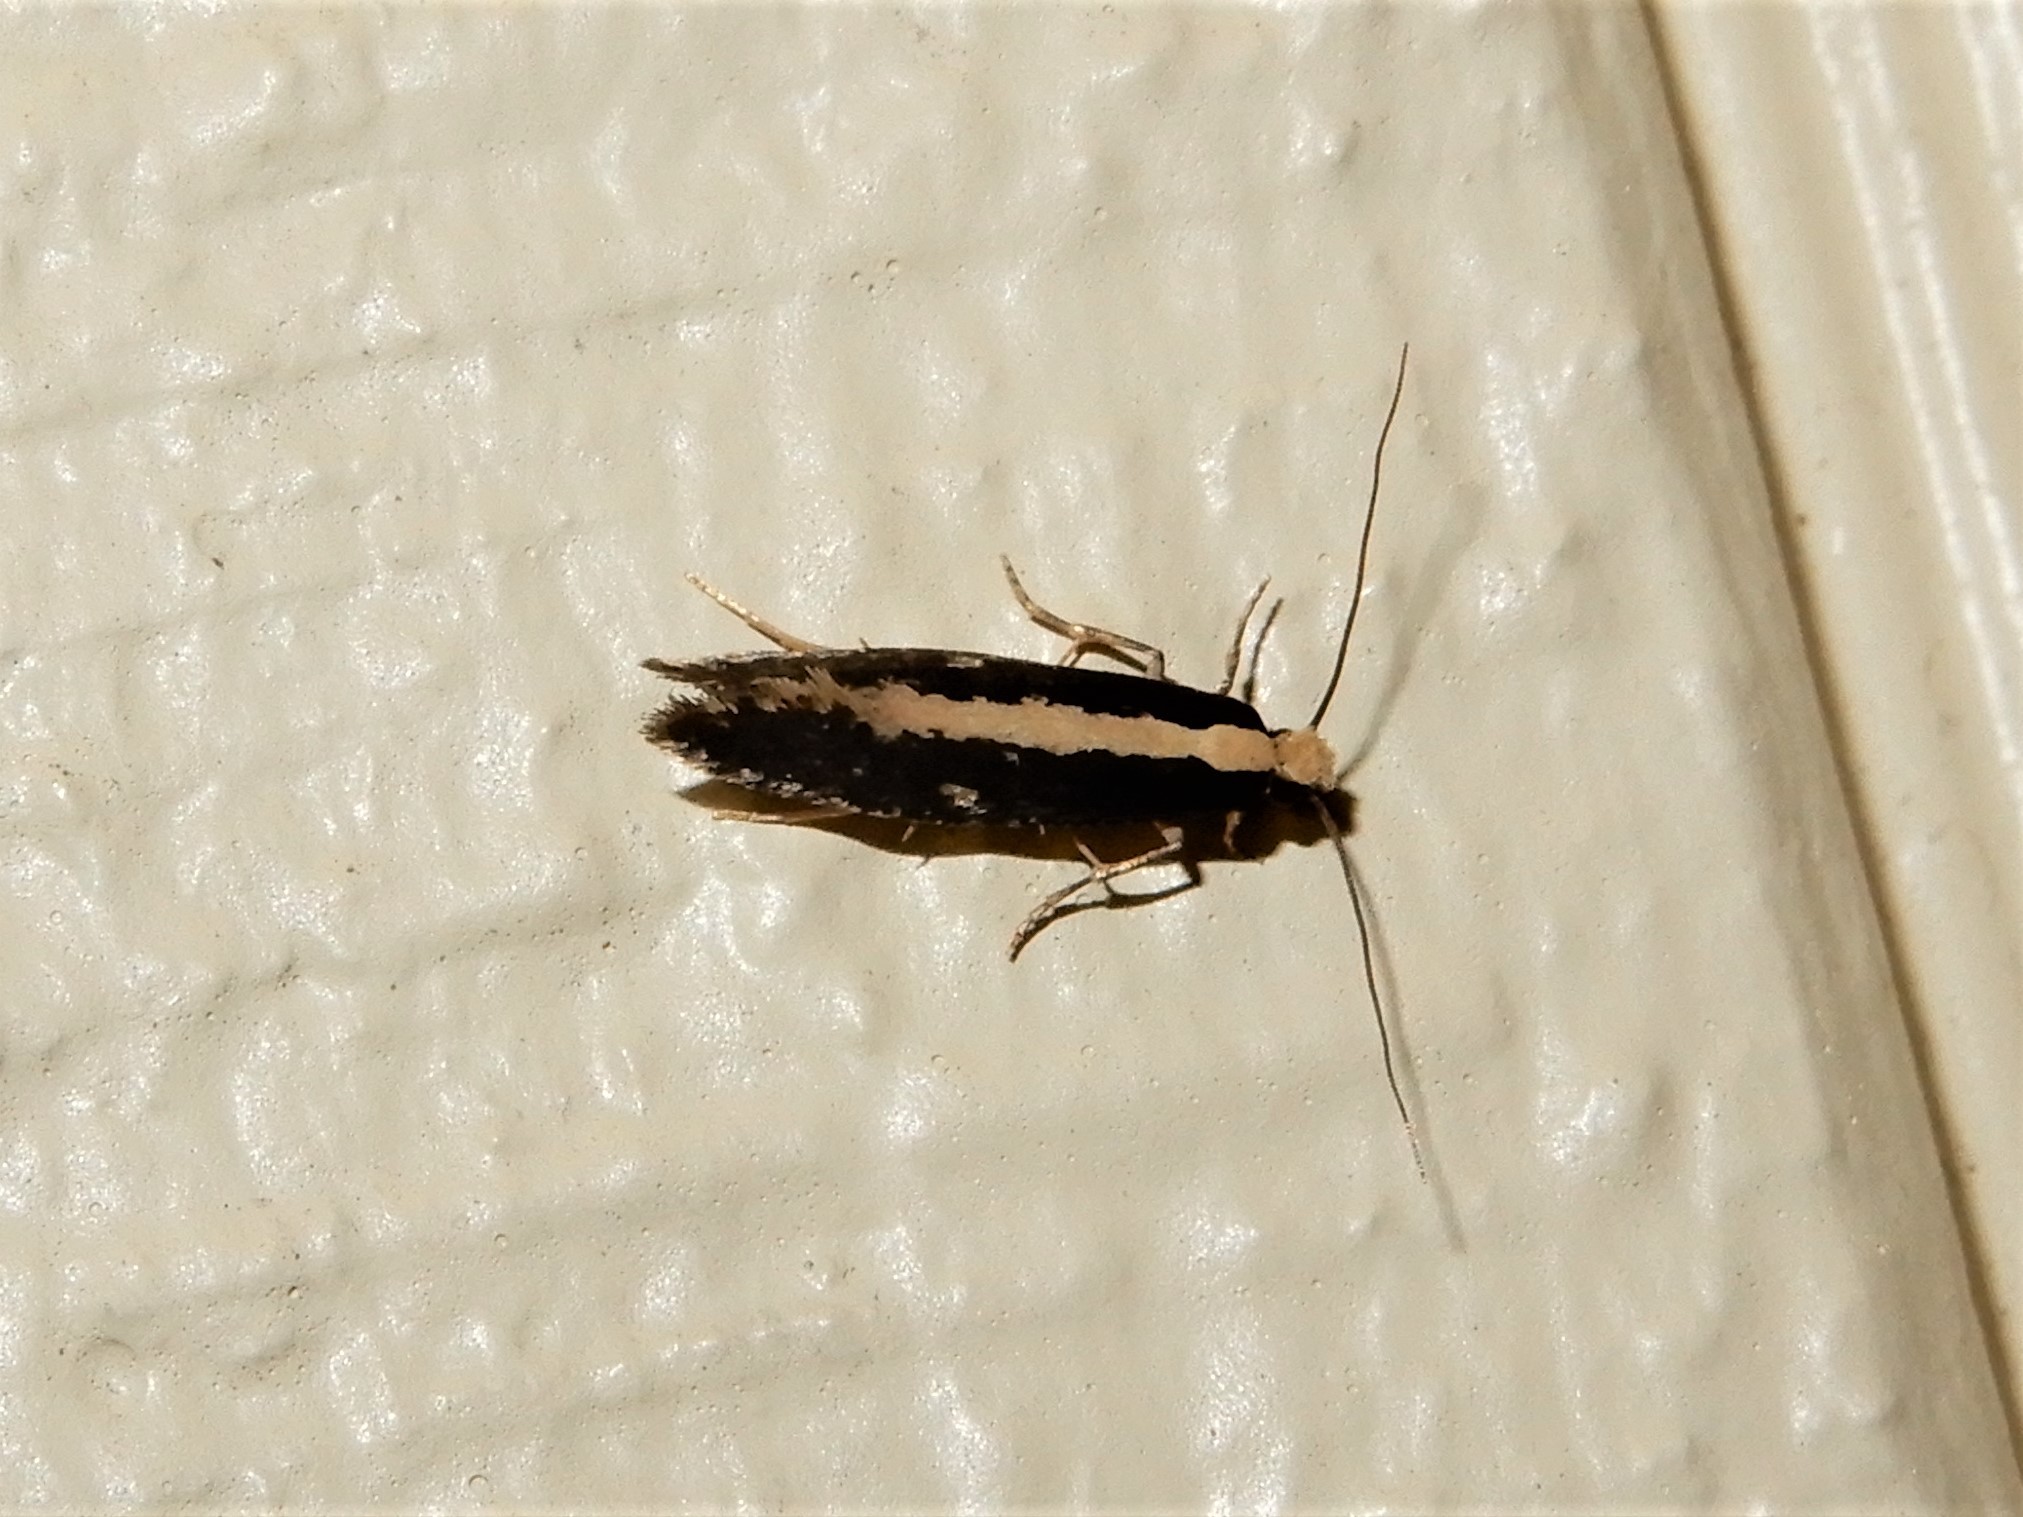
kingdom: Animalia
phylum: Arthropoda
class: Insecta
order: Lepidoptera
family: Tineidae
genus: Monopis
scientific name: Monopis ethelella
